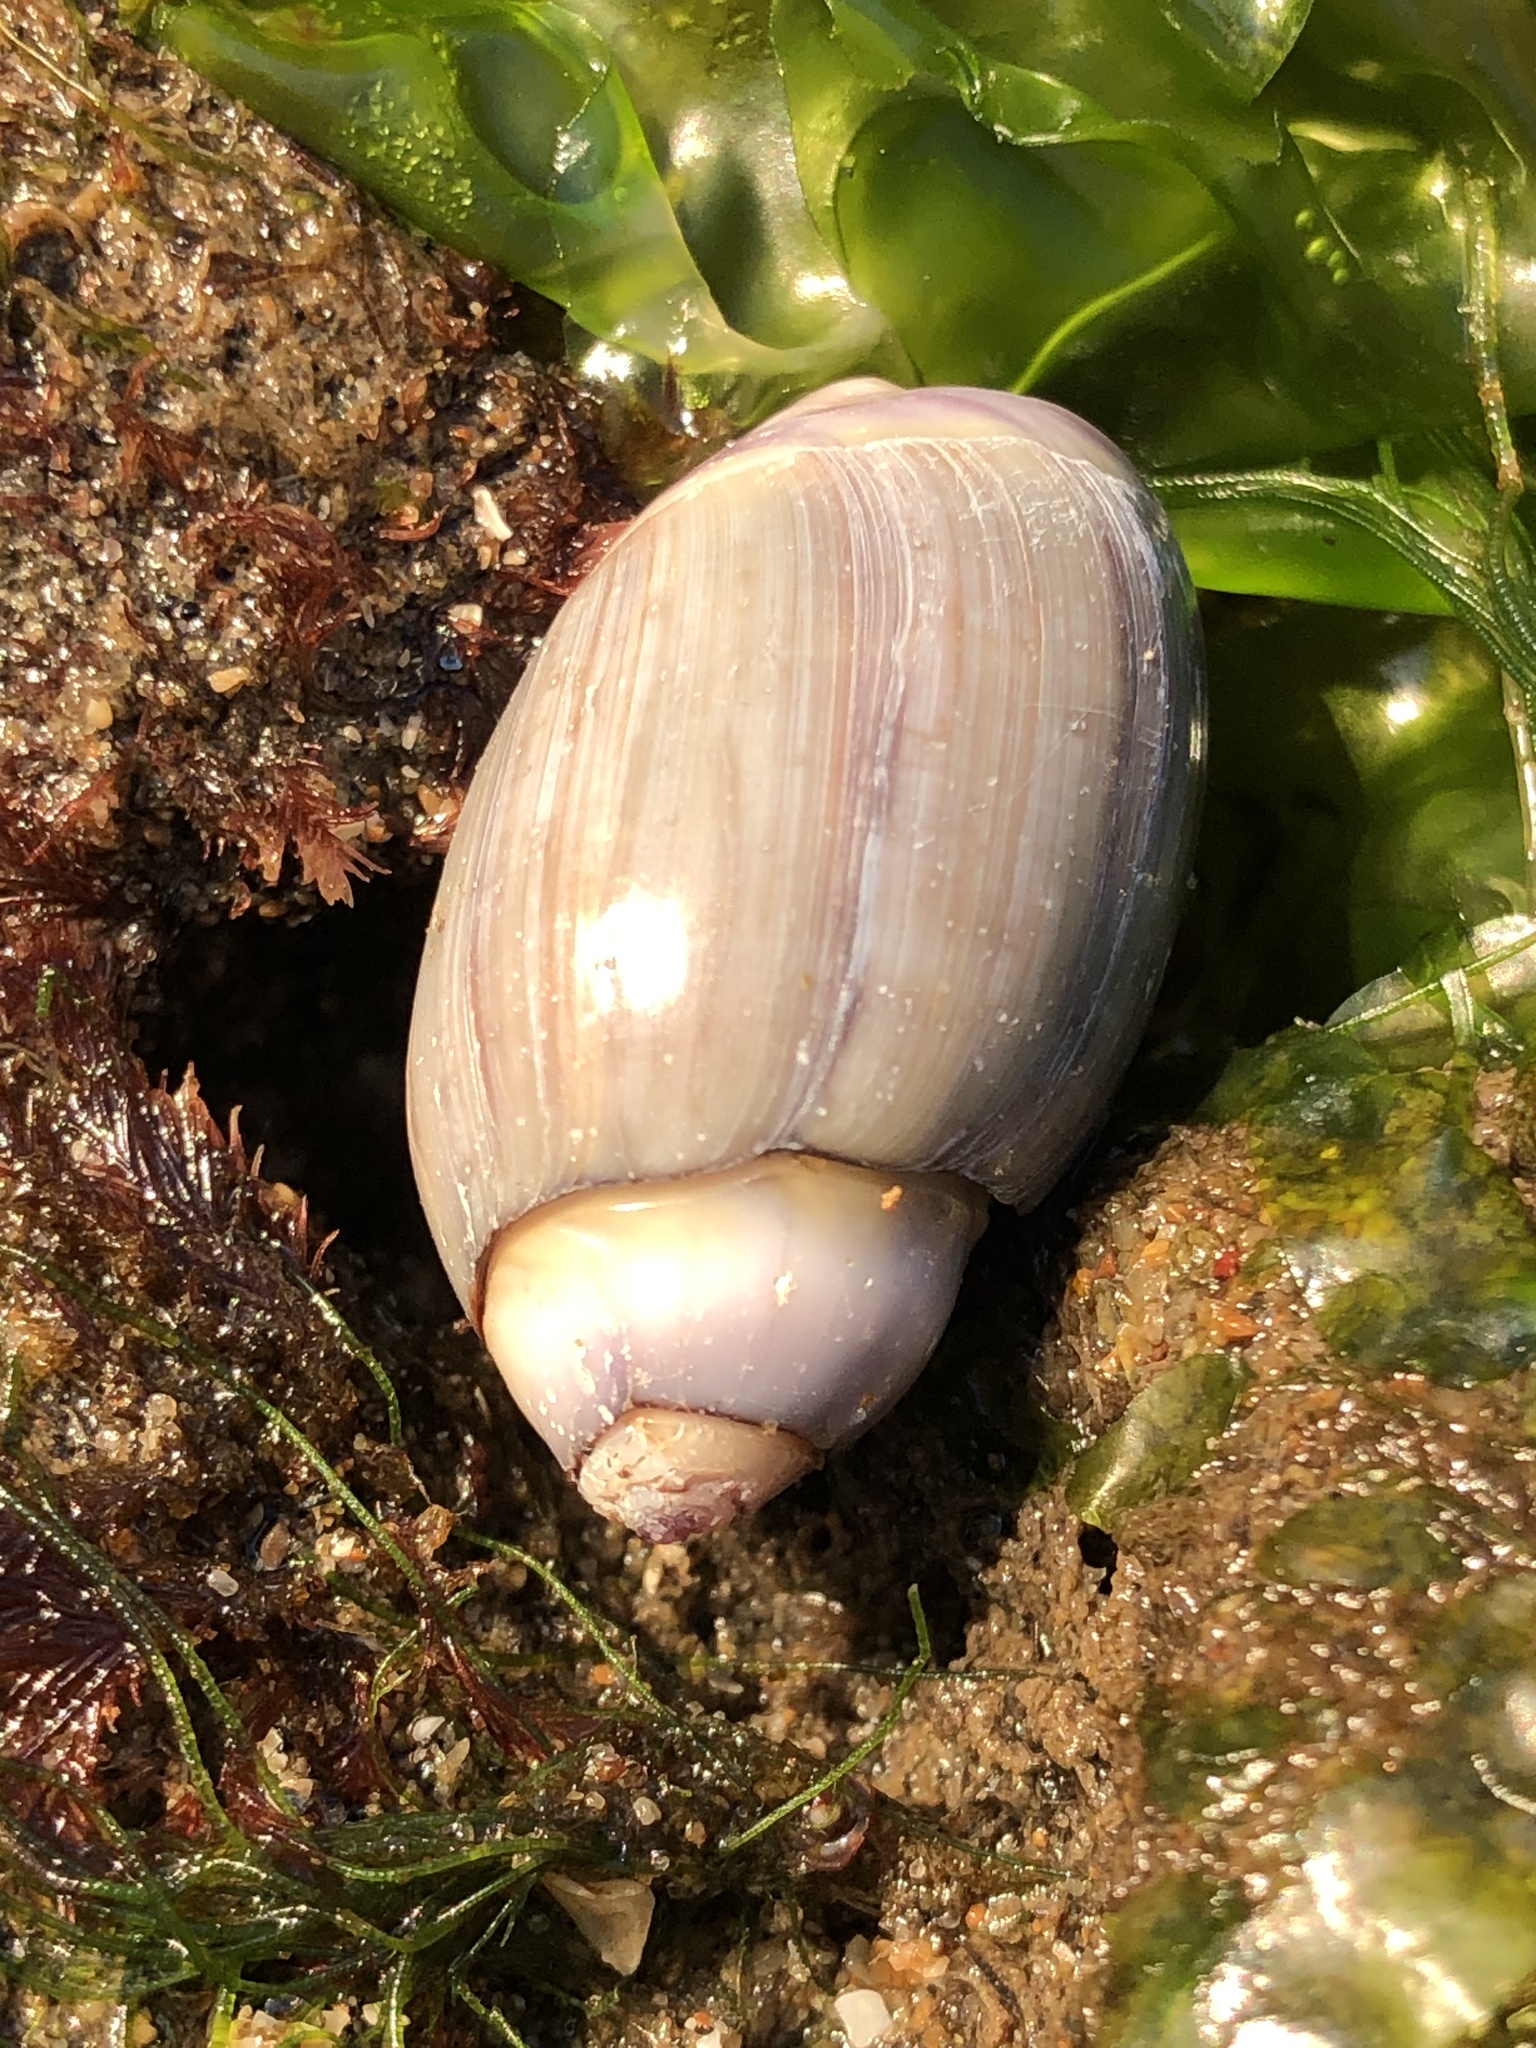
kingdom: Animalia
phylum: Mollusca
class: Gastropoda
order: Neogastropoda
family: Olividae
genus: Callianax
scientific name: Callianax biplicata
